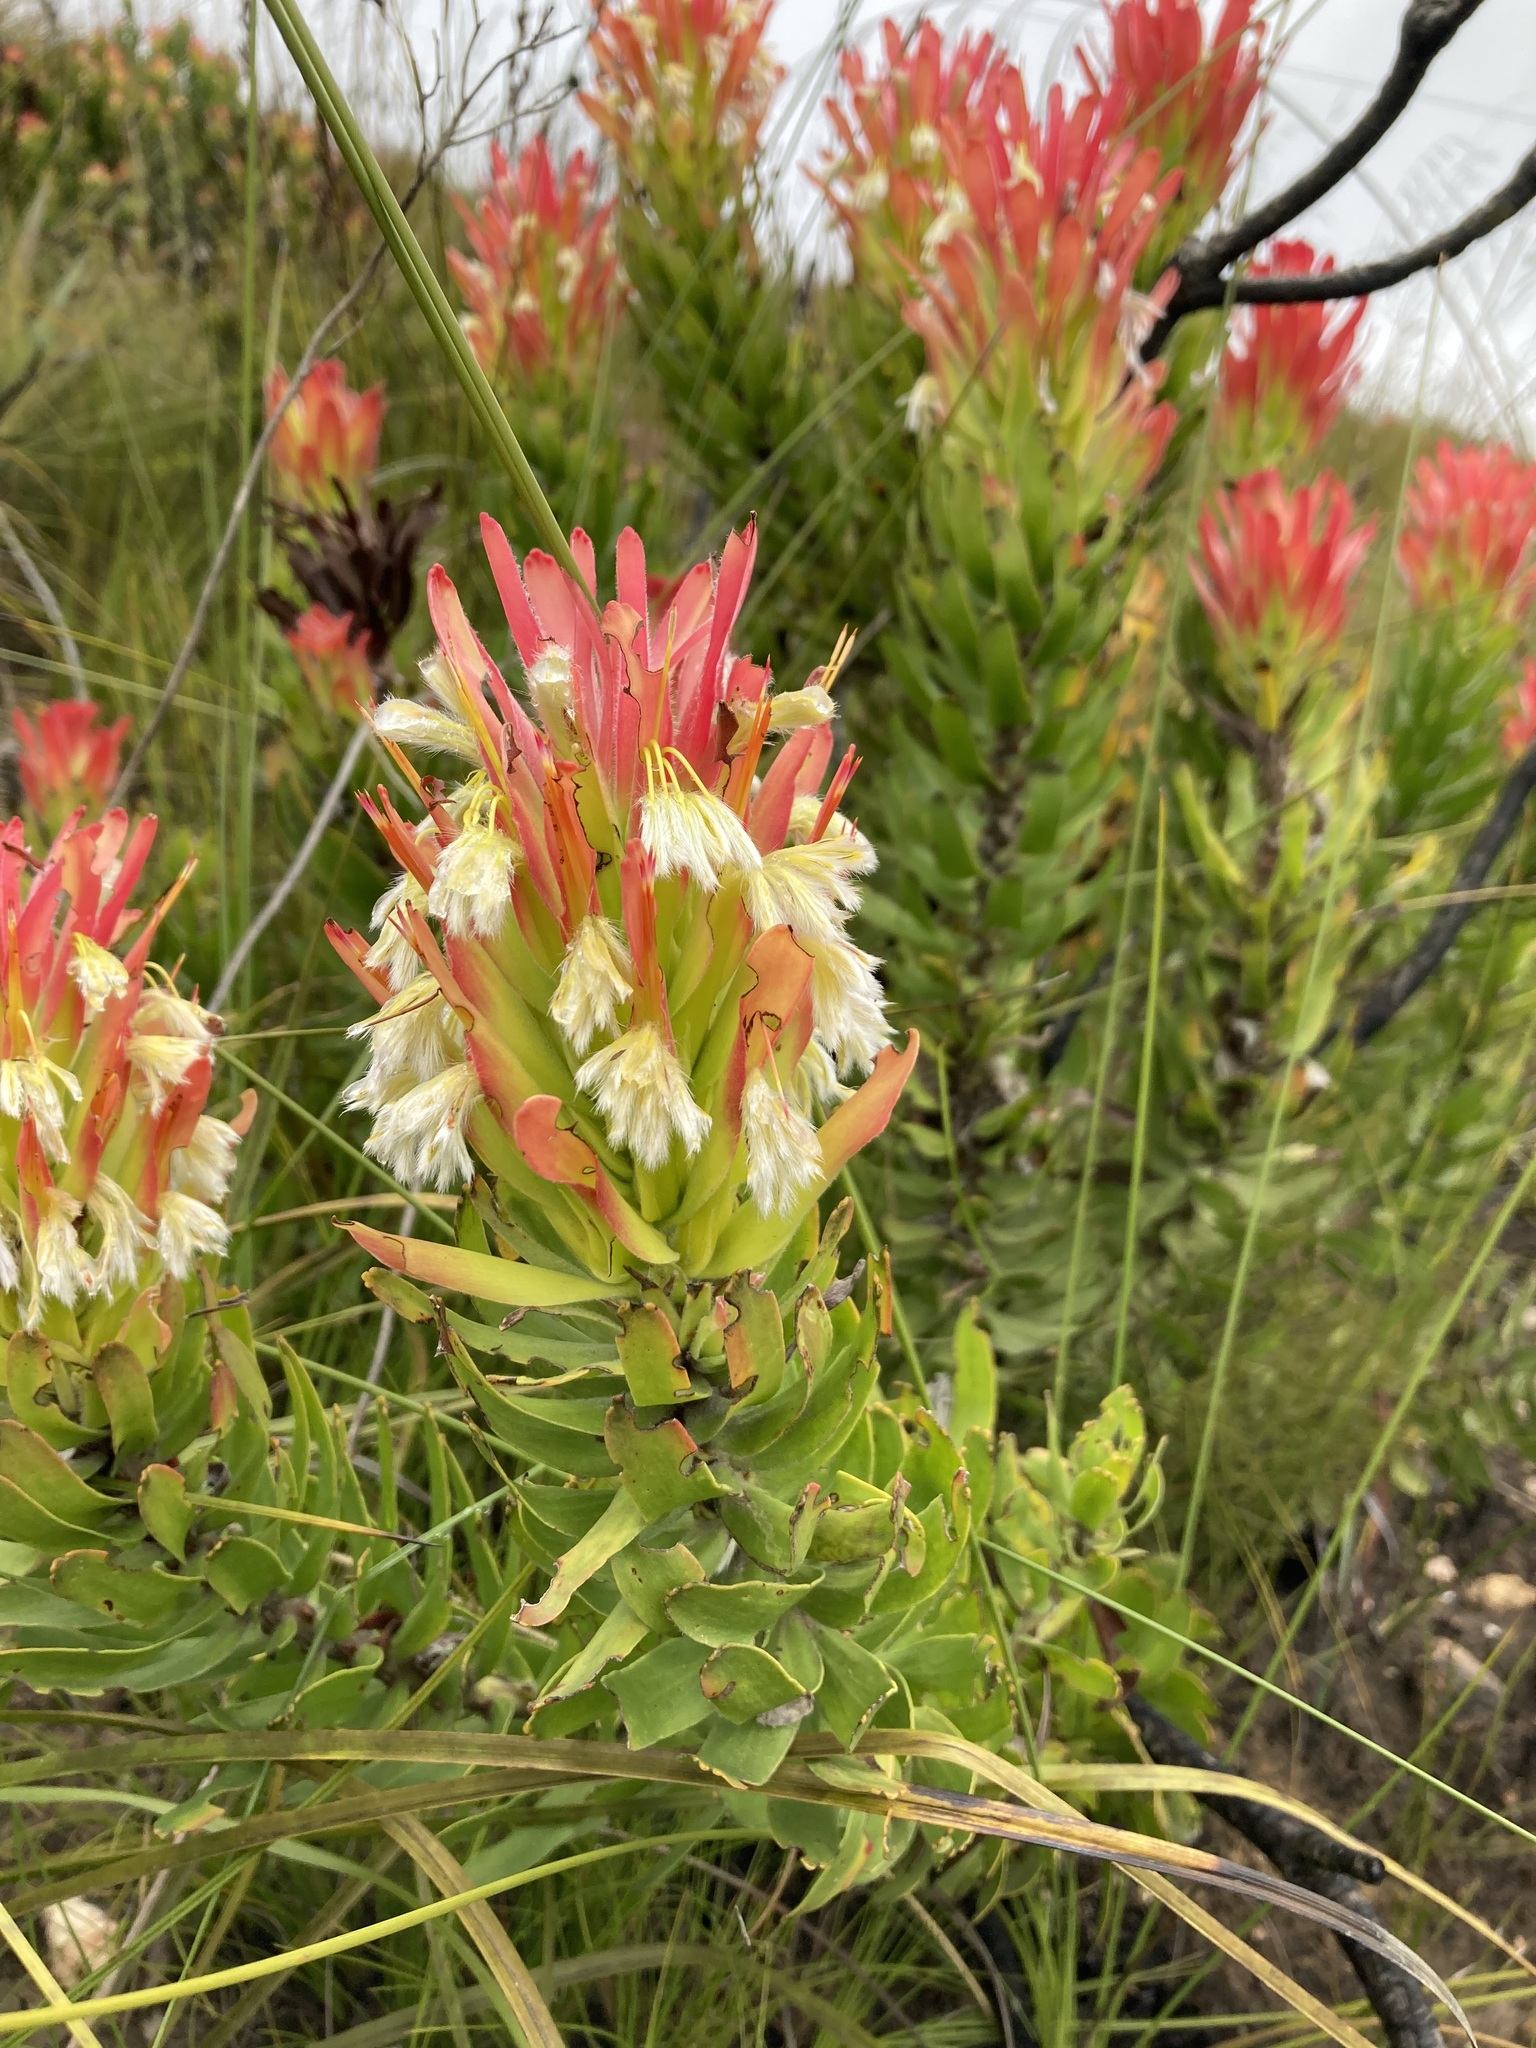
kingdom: Plantae
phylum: Tracheophyta
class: Magnoliopsida
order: Proteales
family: Proteaceae
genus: Mimetes
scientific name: Mimetes cucullatus
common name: Common pagoda
